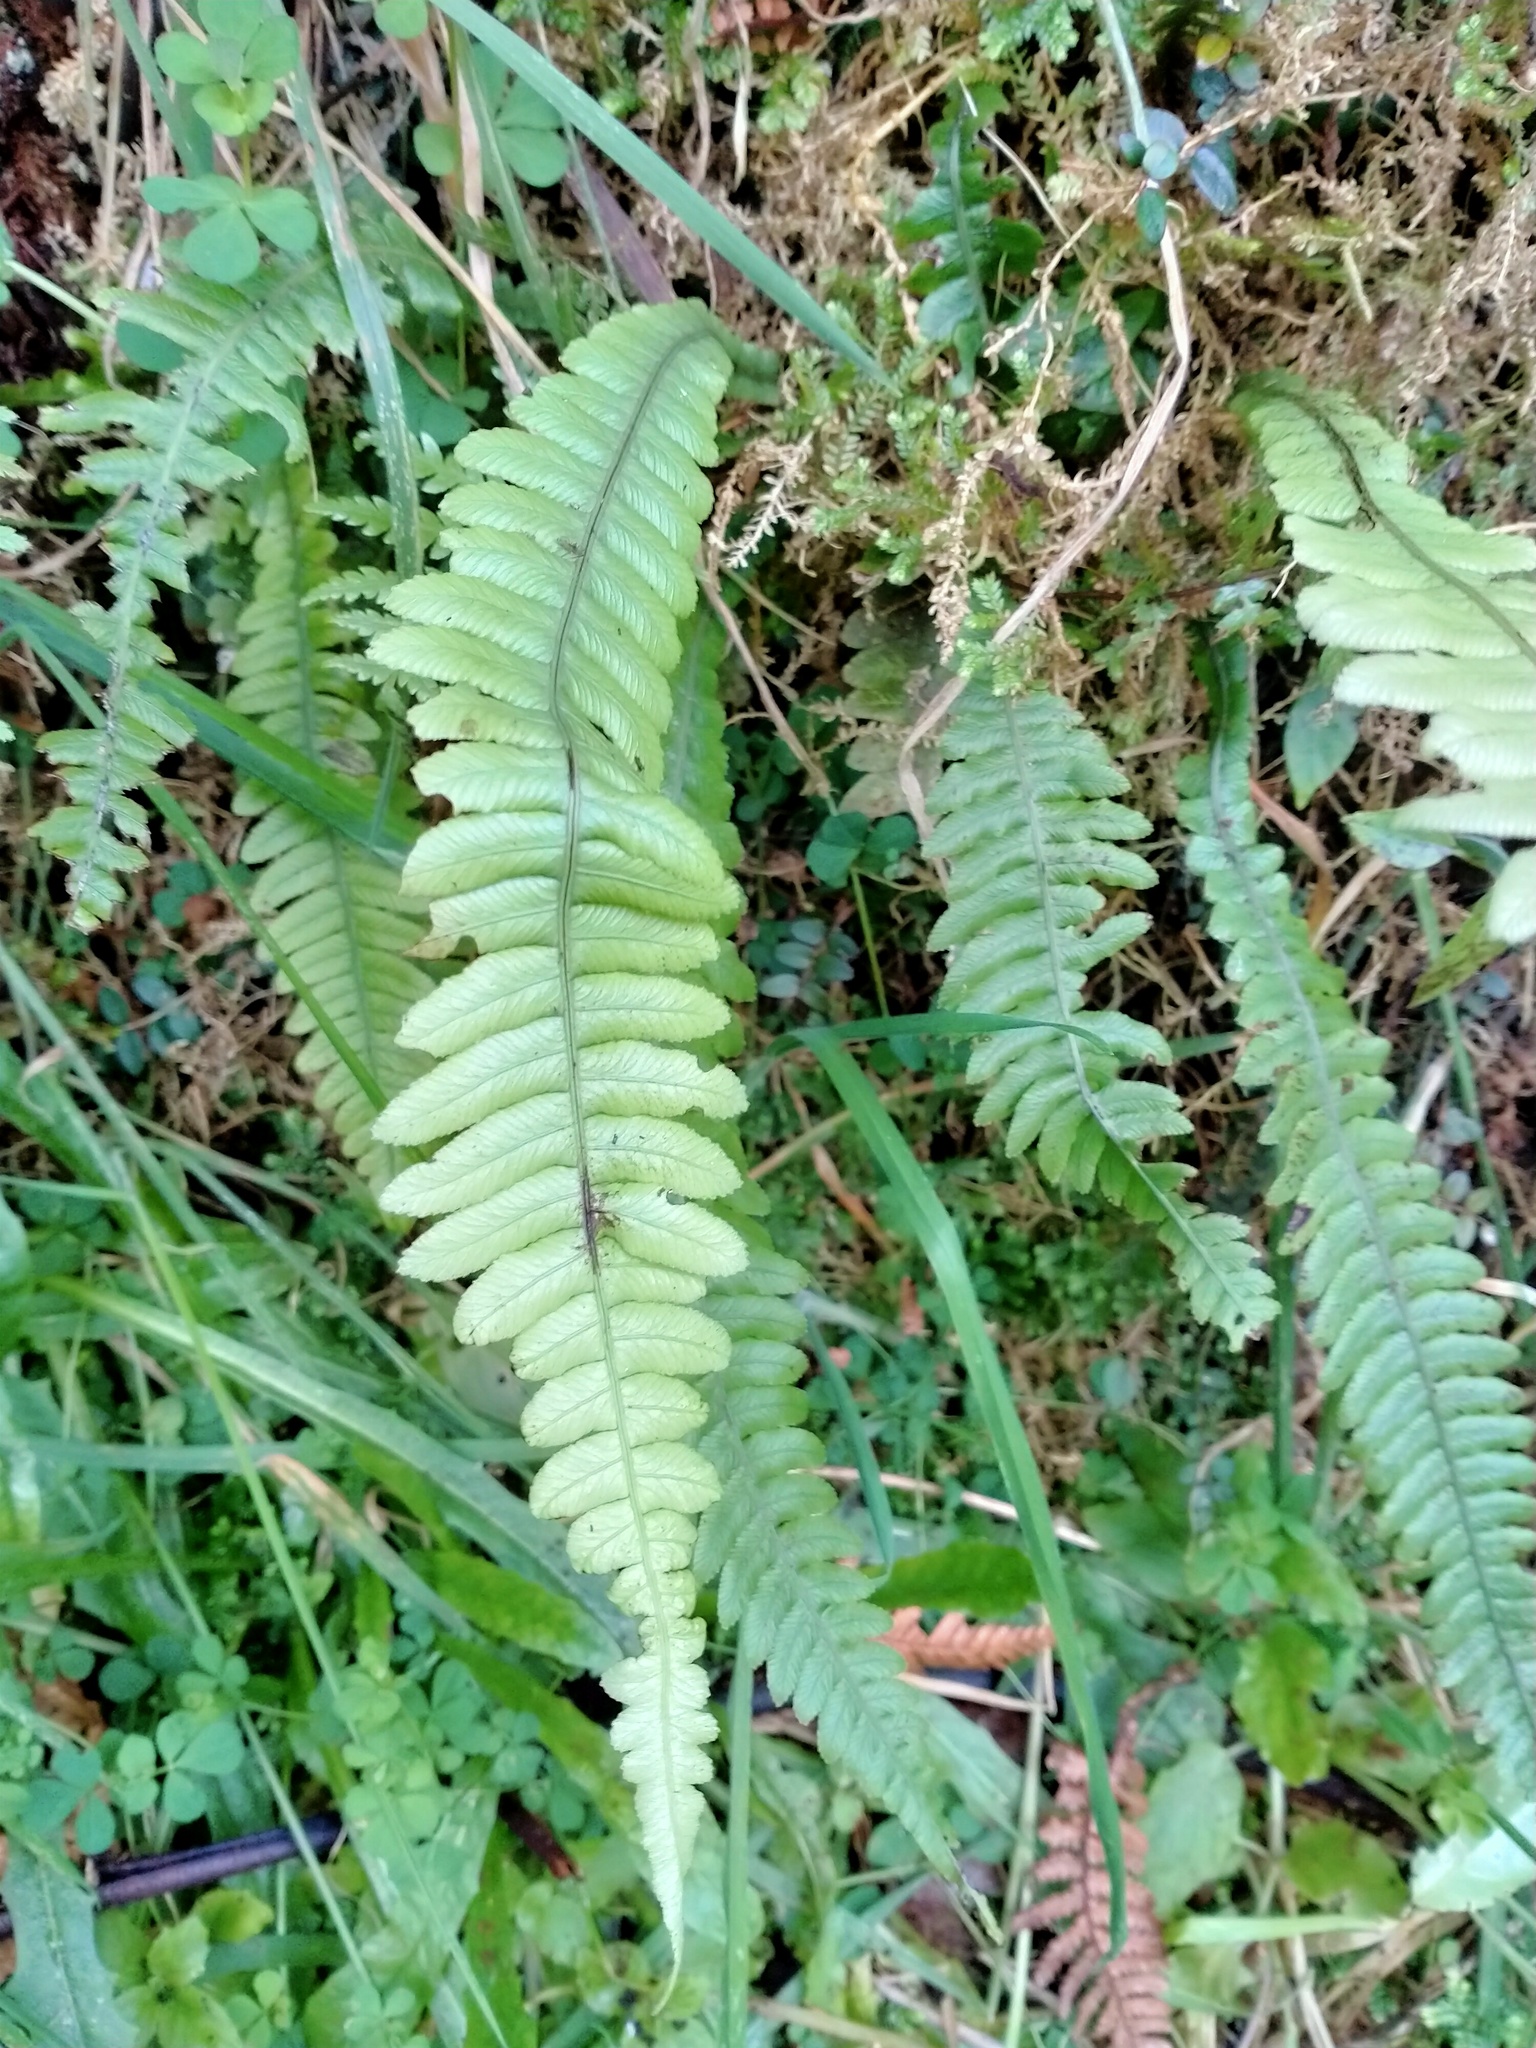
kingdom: Plantae
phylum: Tracheophyta
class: Polypodiopsida
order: Polypodiales
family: Blechnaceae
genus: Austroblechnum
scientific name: Austroblechnum lanceolatum
